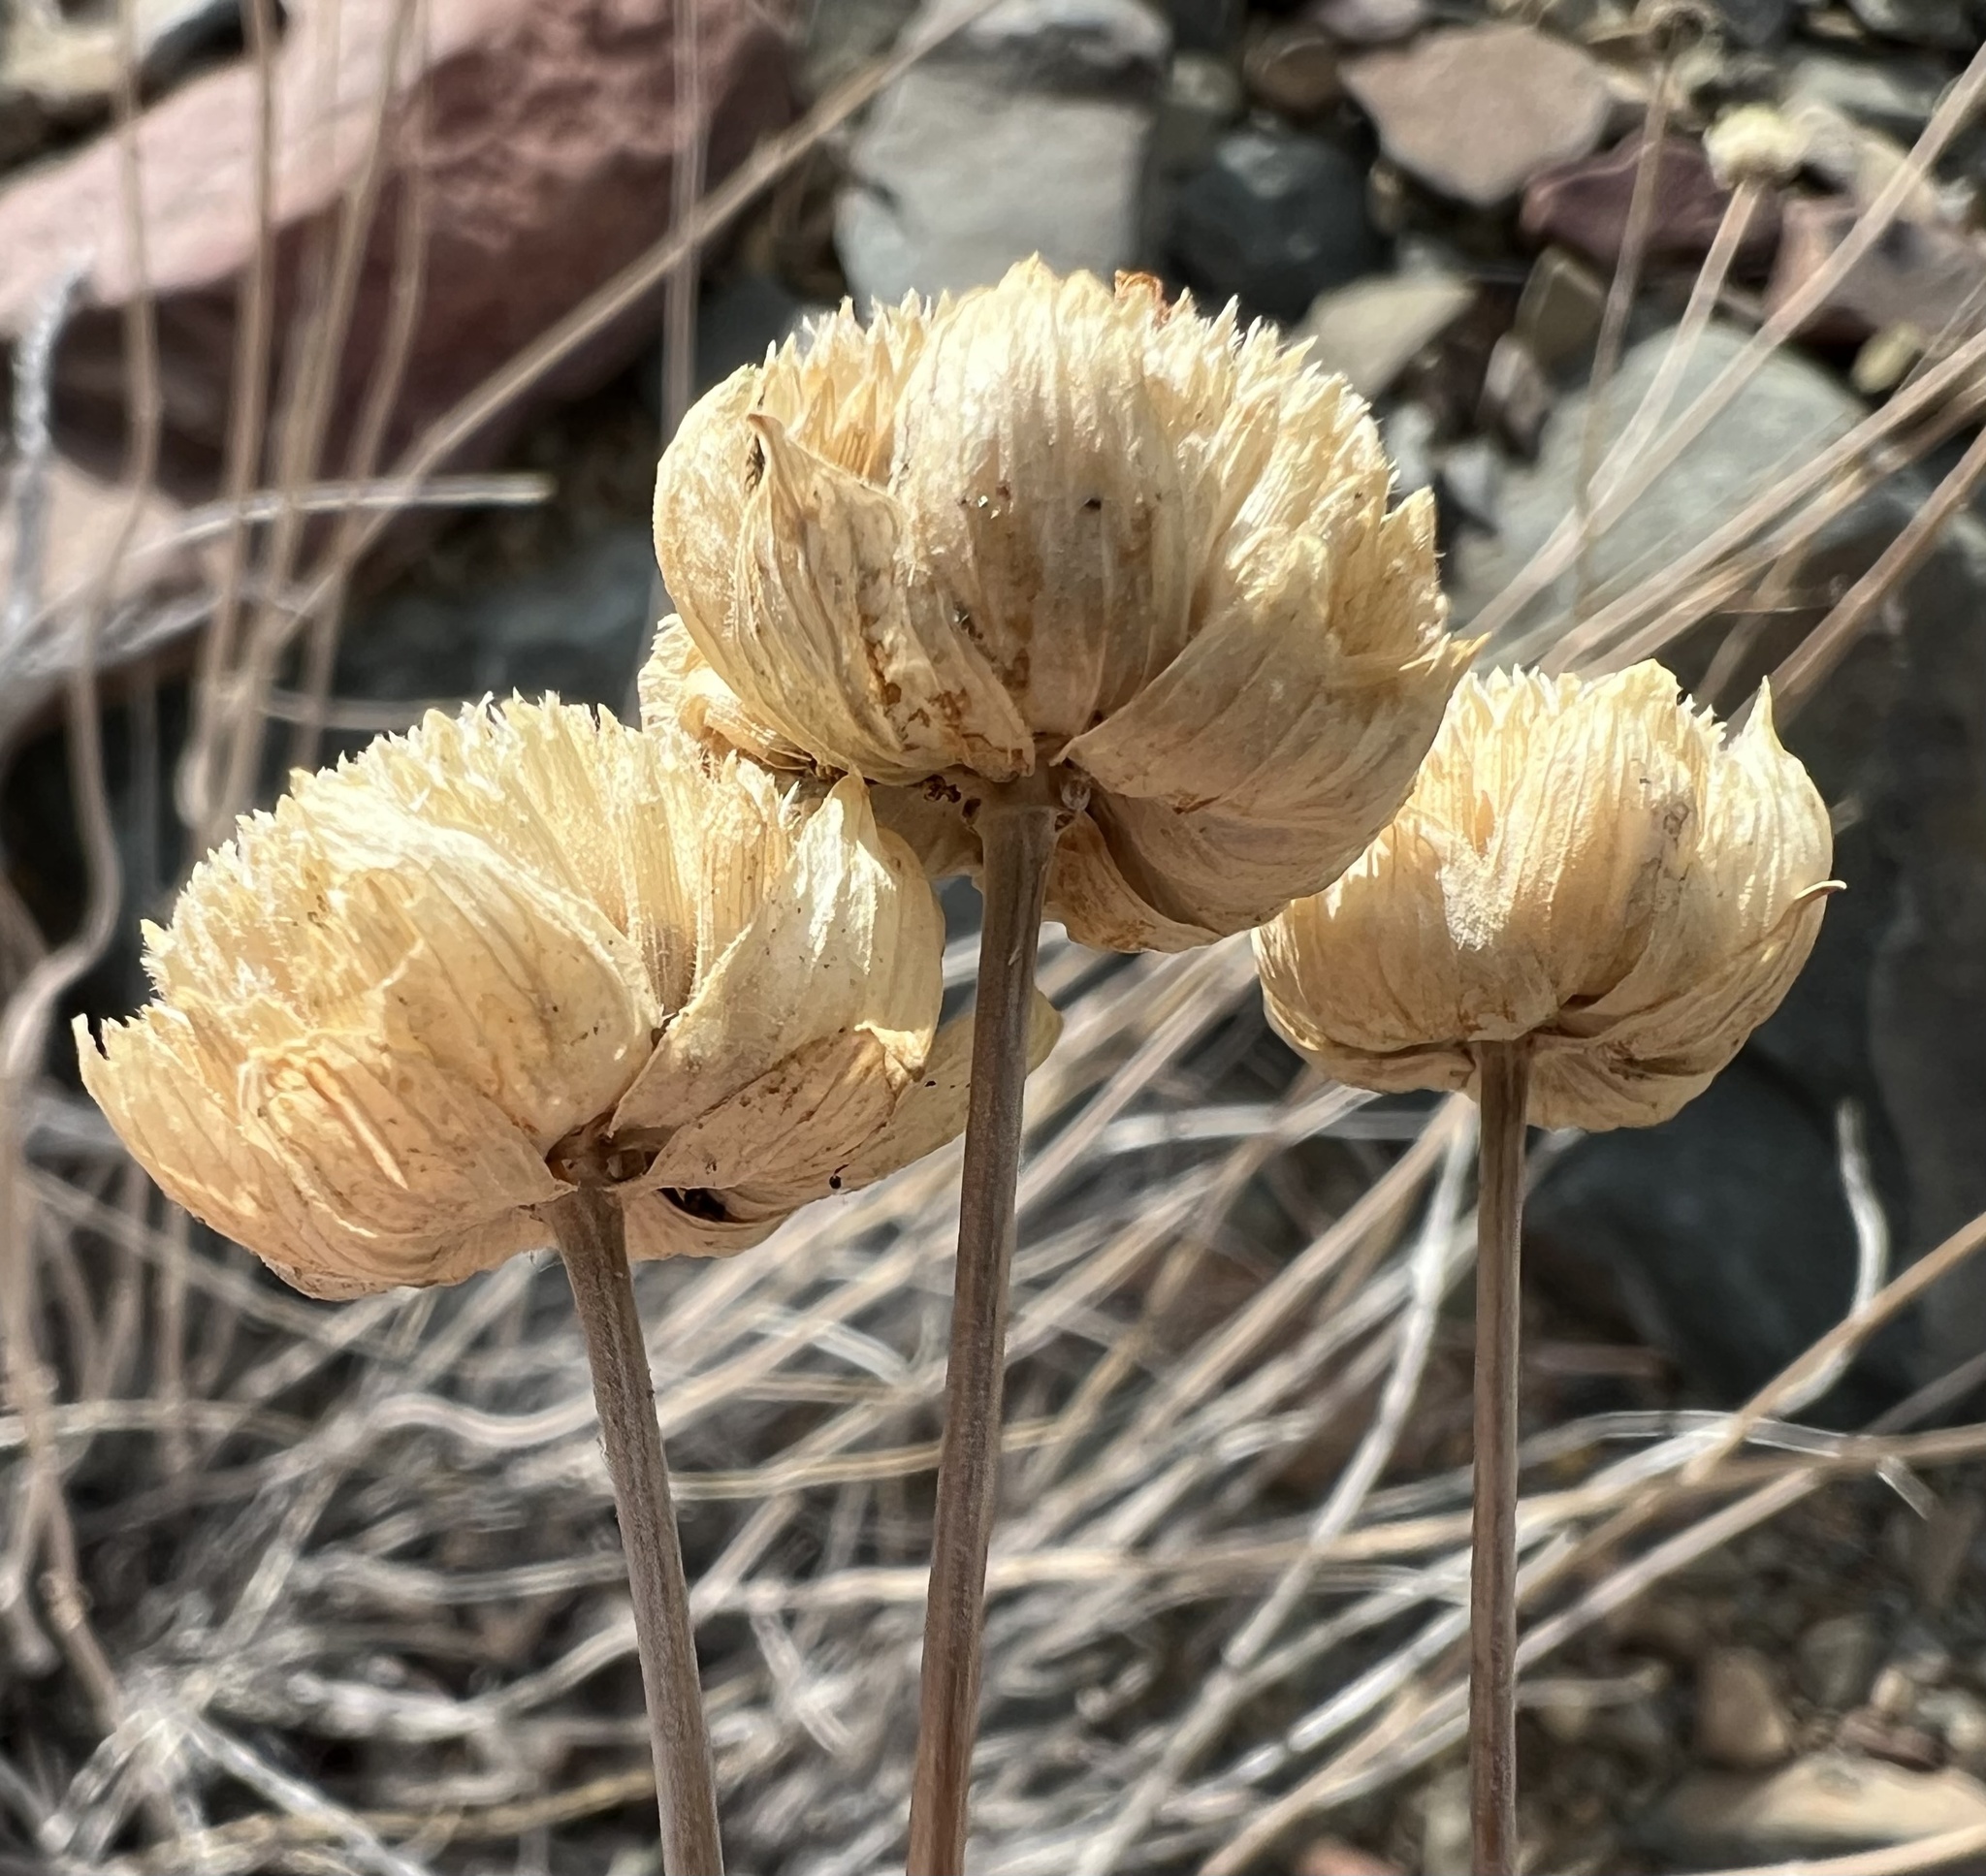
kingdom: Plantae
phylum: Tracheophyta
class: Magnoliopsida
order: Lamiales
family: Lamiaceae
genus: Monardella
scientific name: Monardella linoides
